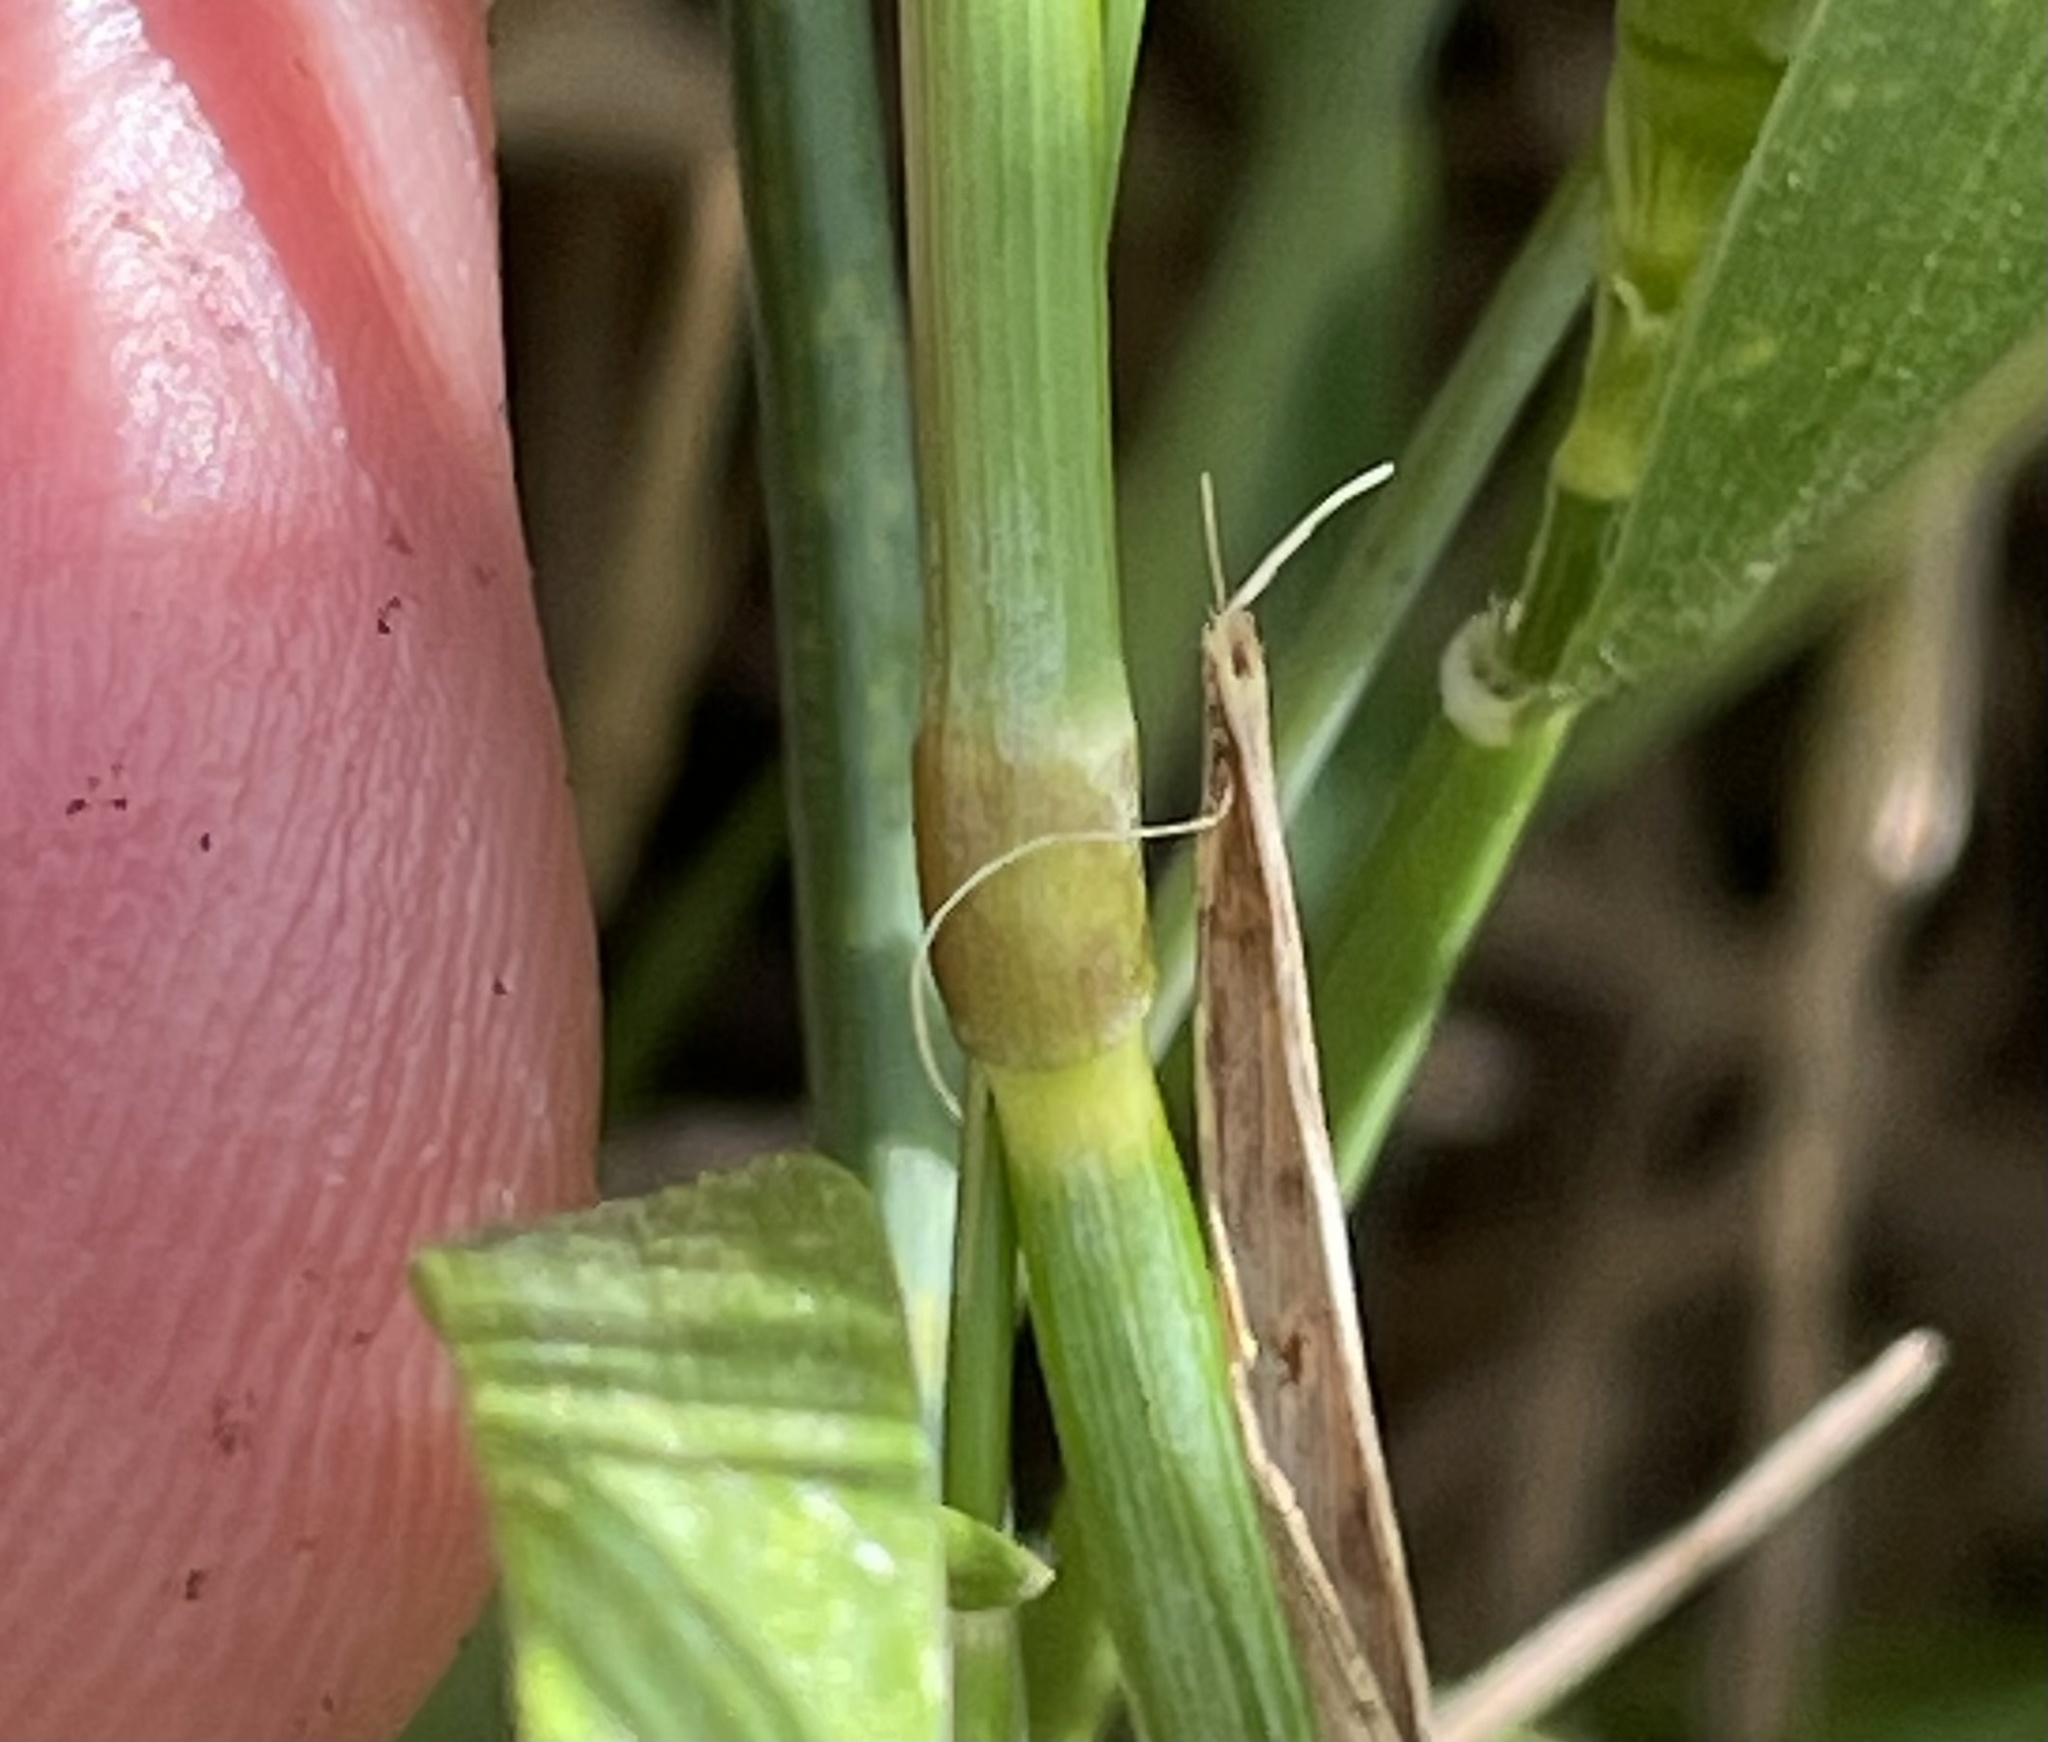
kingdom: Plantae
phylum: Tracheophyta
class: Liliopsida
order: Poales
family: Poaceae
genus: Hordeum
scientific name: Hordeum spontaneum
